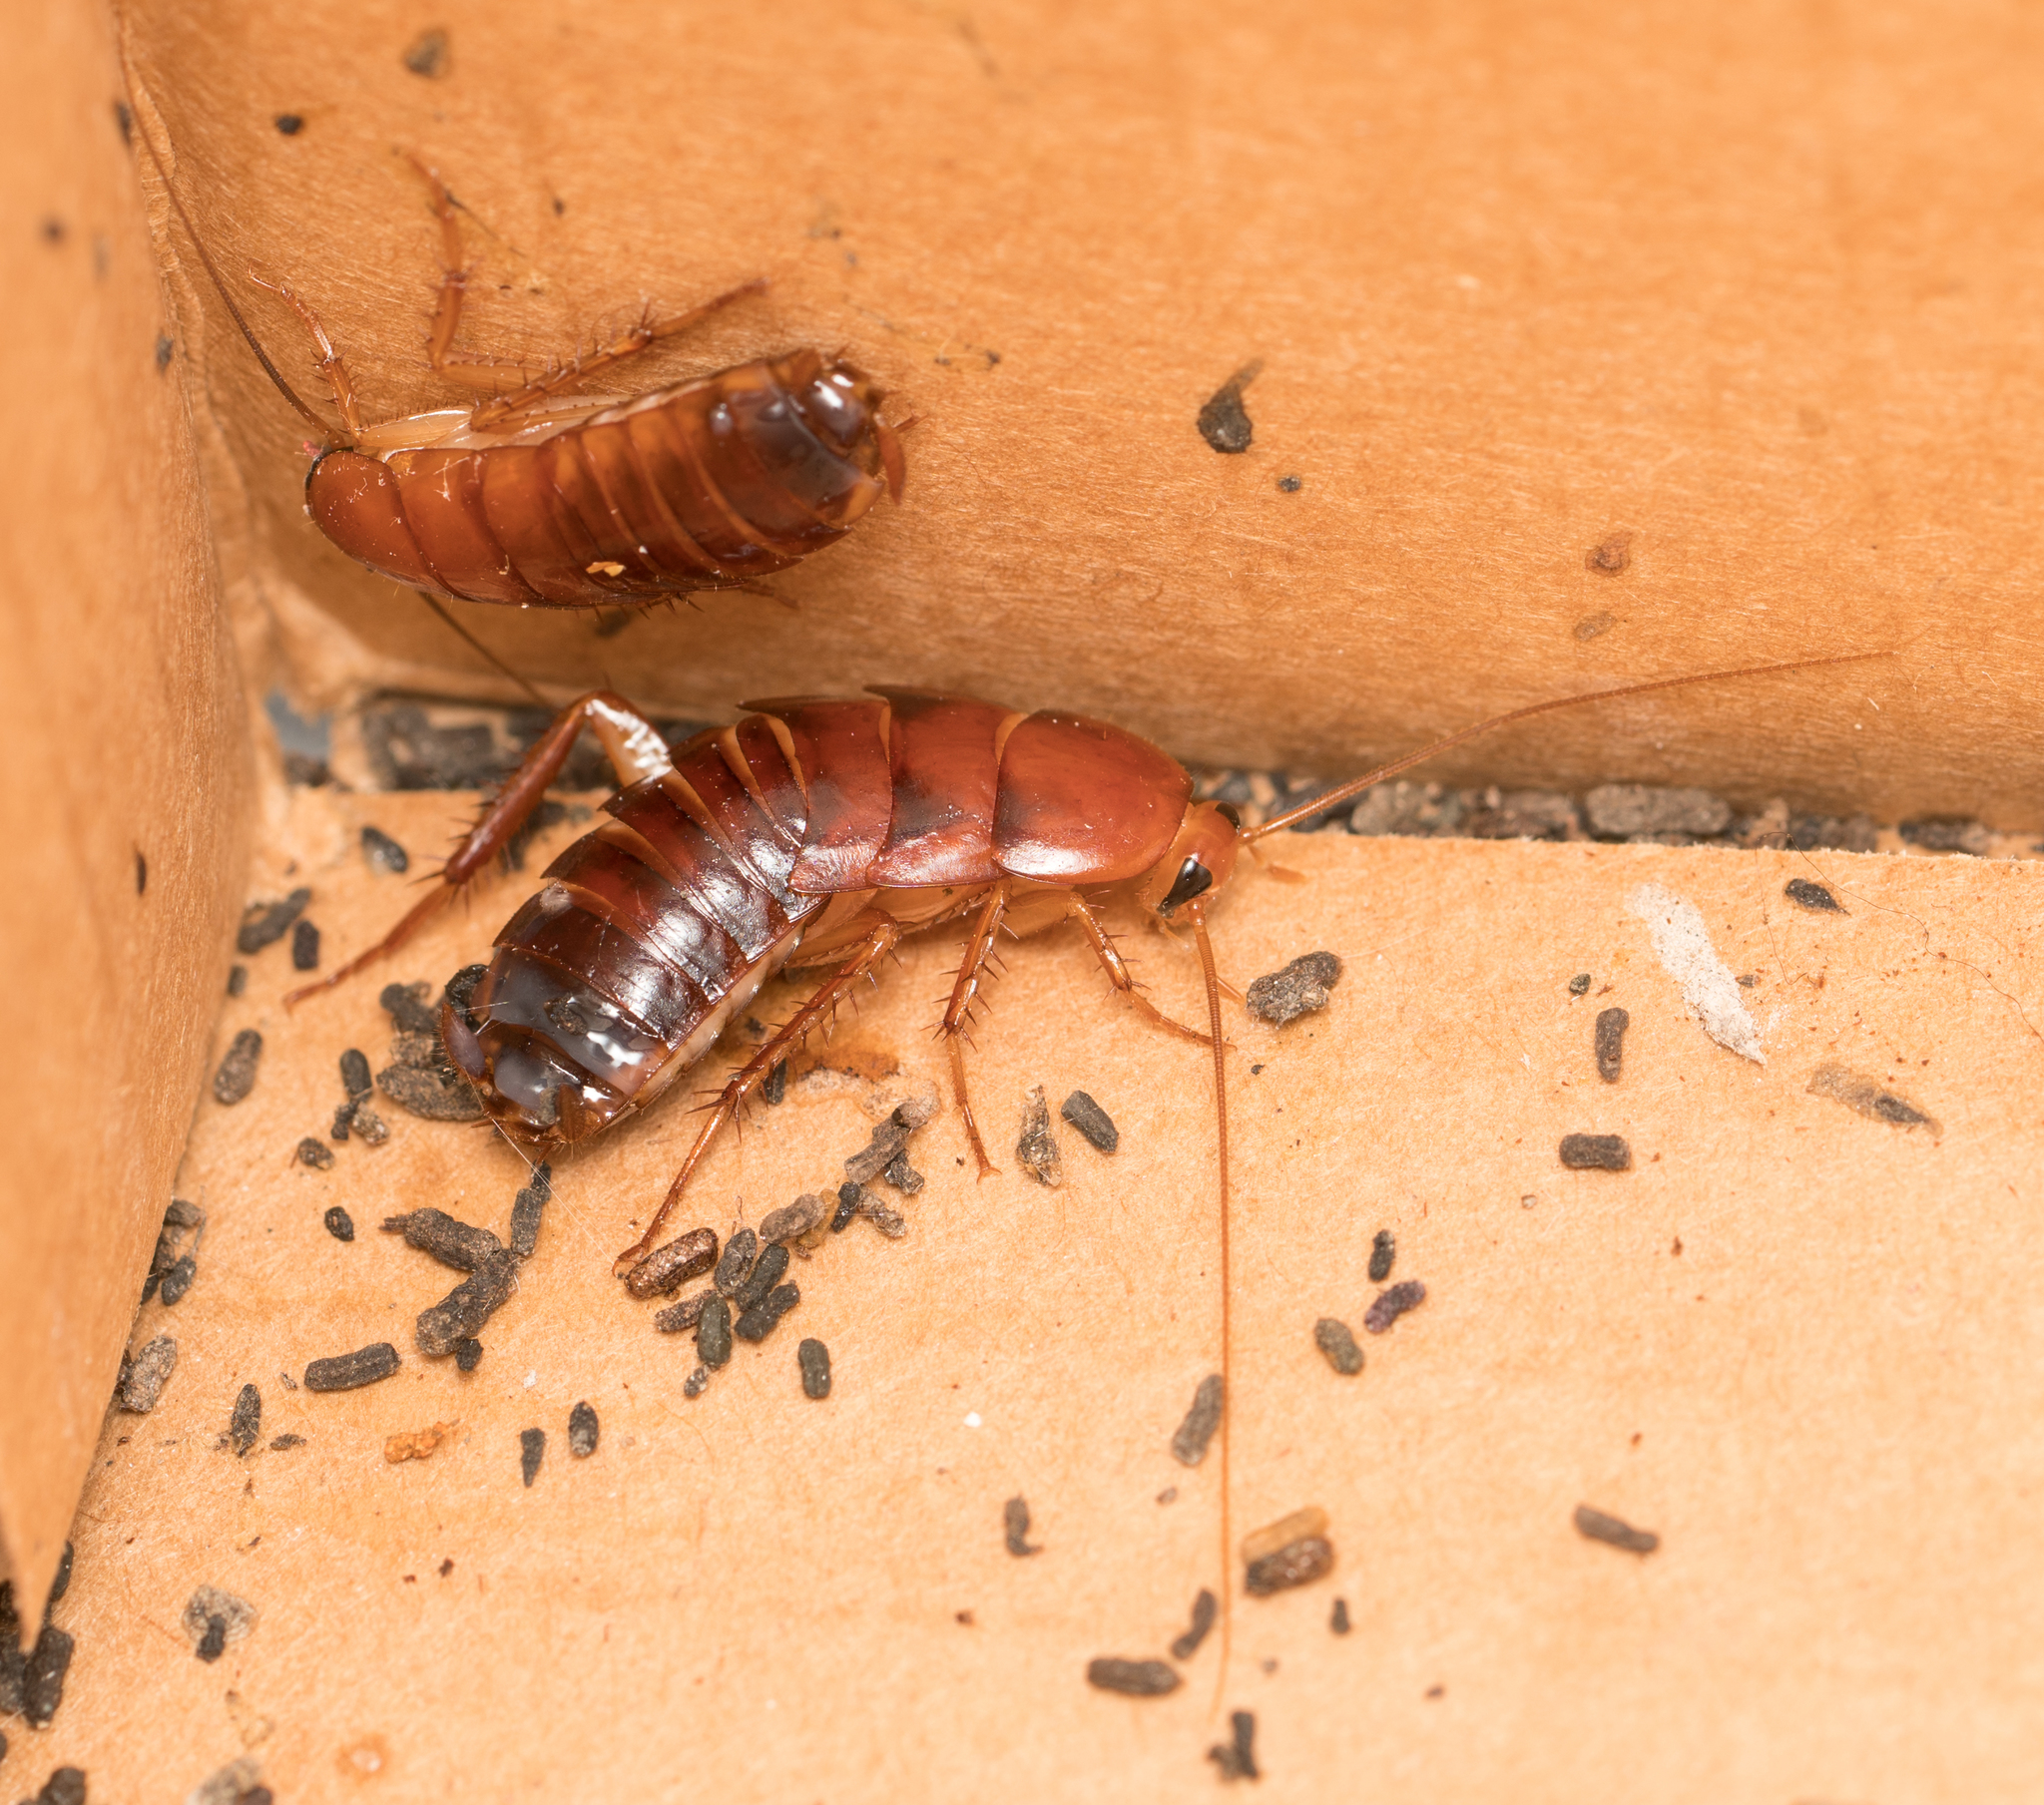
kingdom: Animalia
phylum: Arthropoda
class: Insecta
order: Blattodea
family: Blattidae
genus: Periplaneta
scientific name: Periplaneta lateralis
